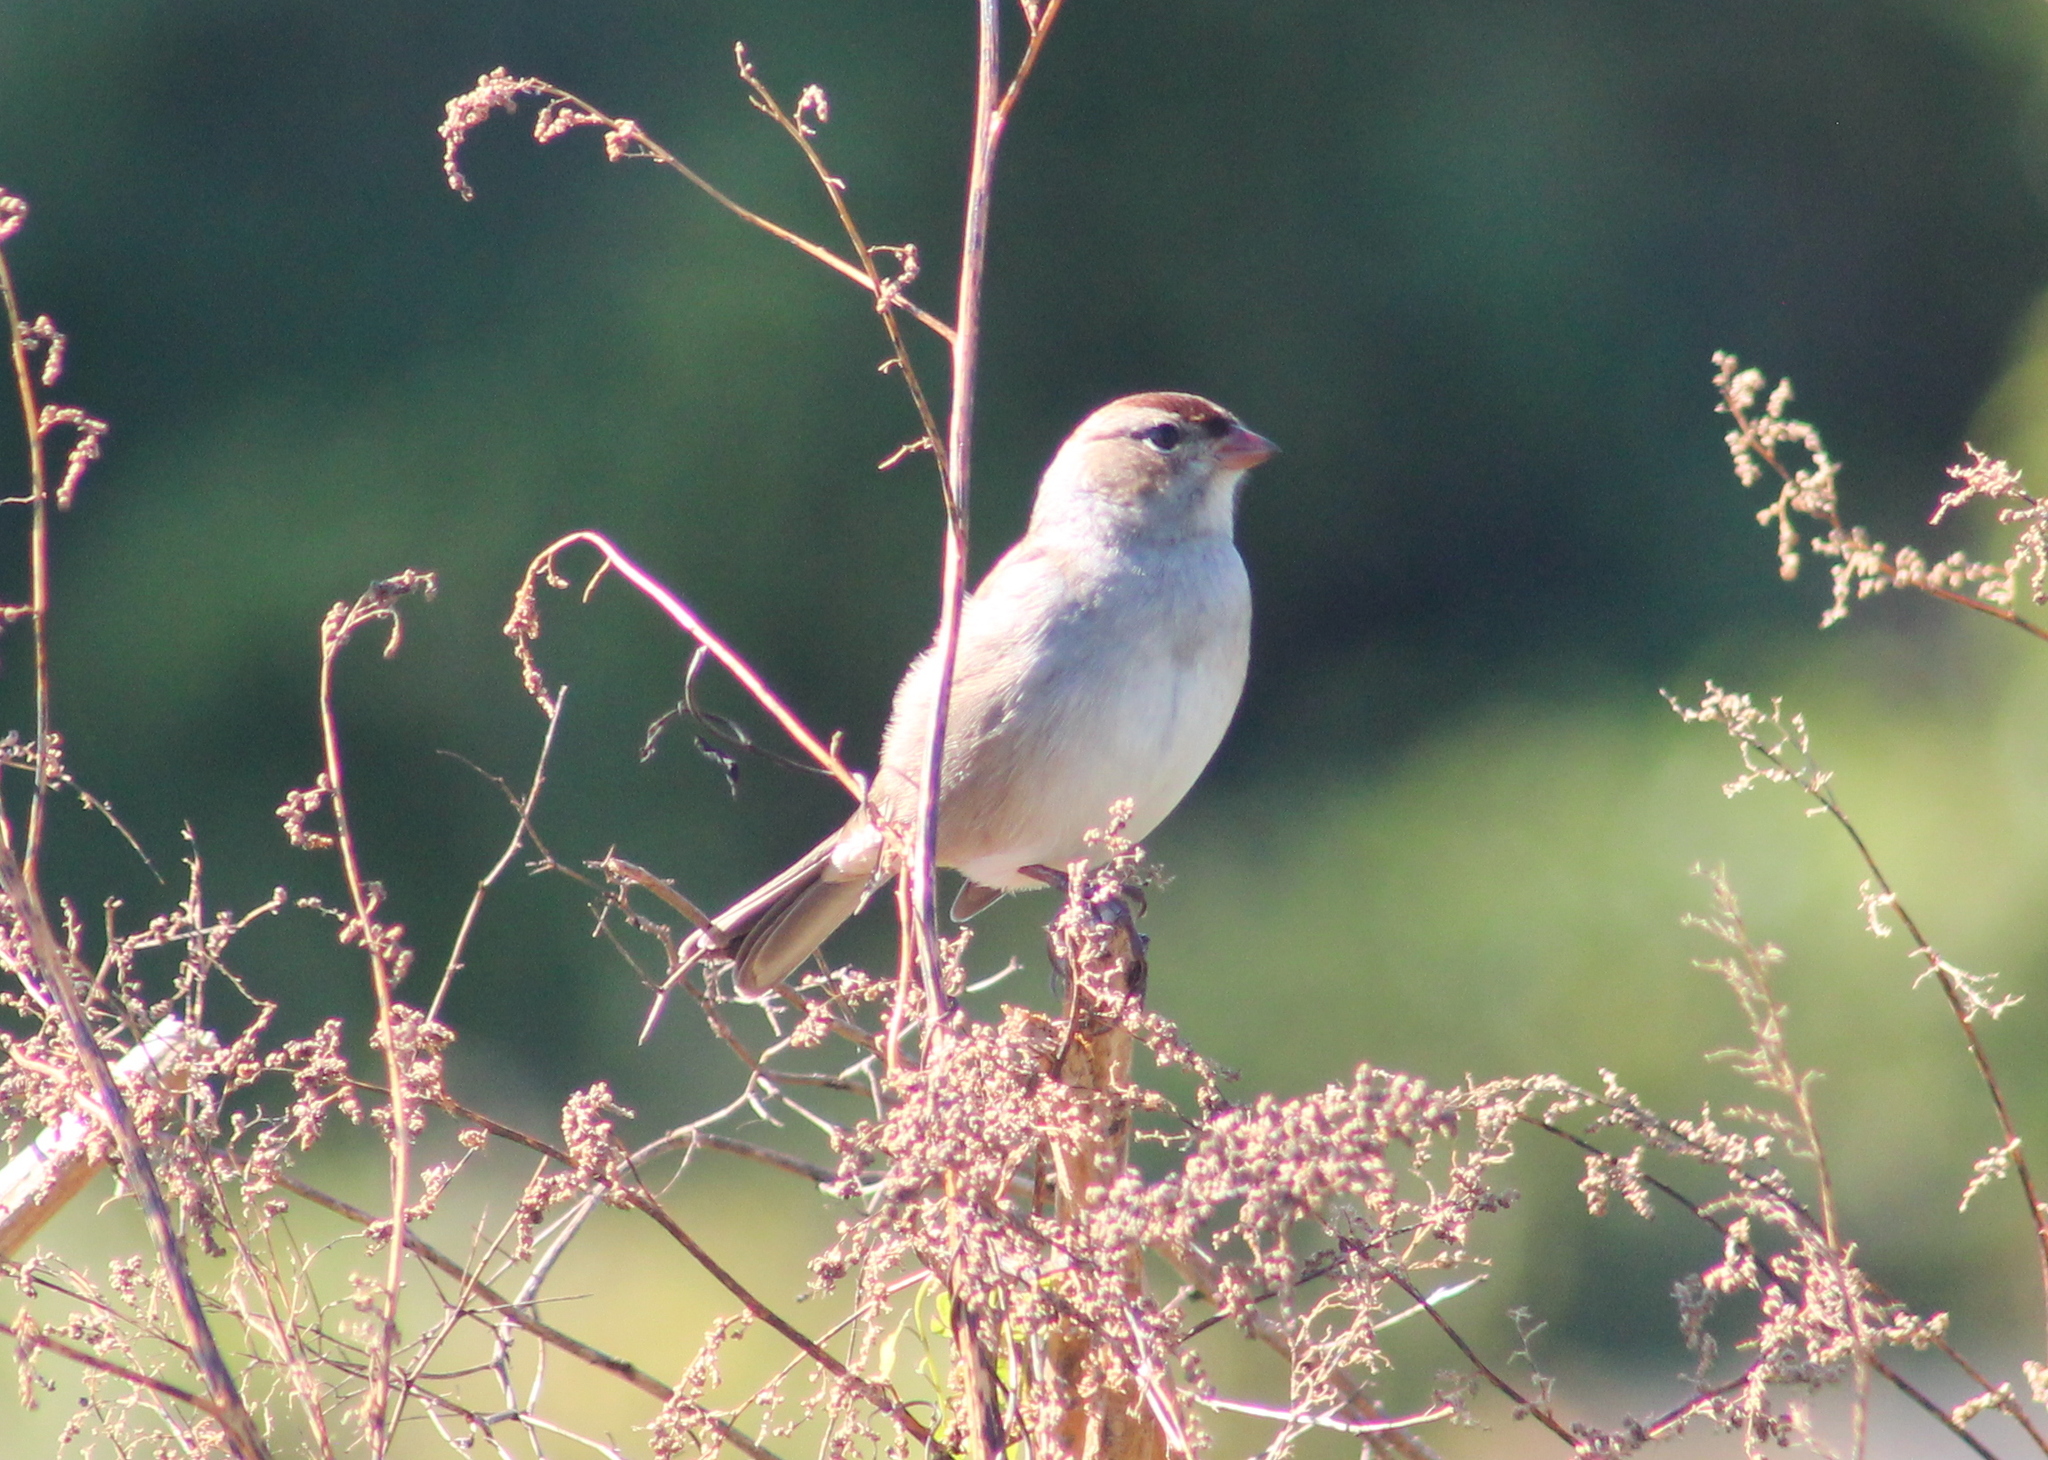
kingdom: Animalia
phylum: Chordata
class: Aves
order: Passeriformes
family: Passerellidae
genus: Zonotrichia
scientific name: Zonotrichia leucophrys
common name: White-crowned sparrow
